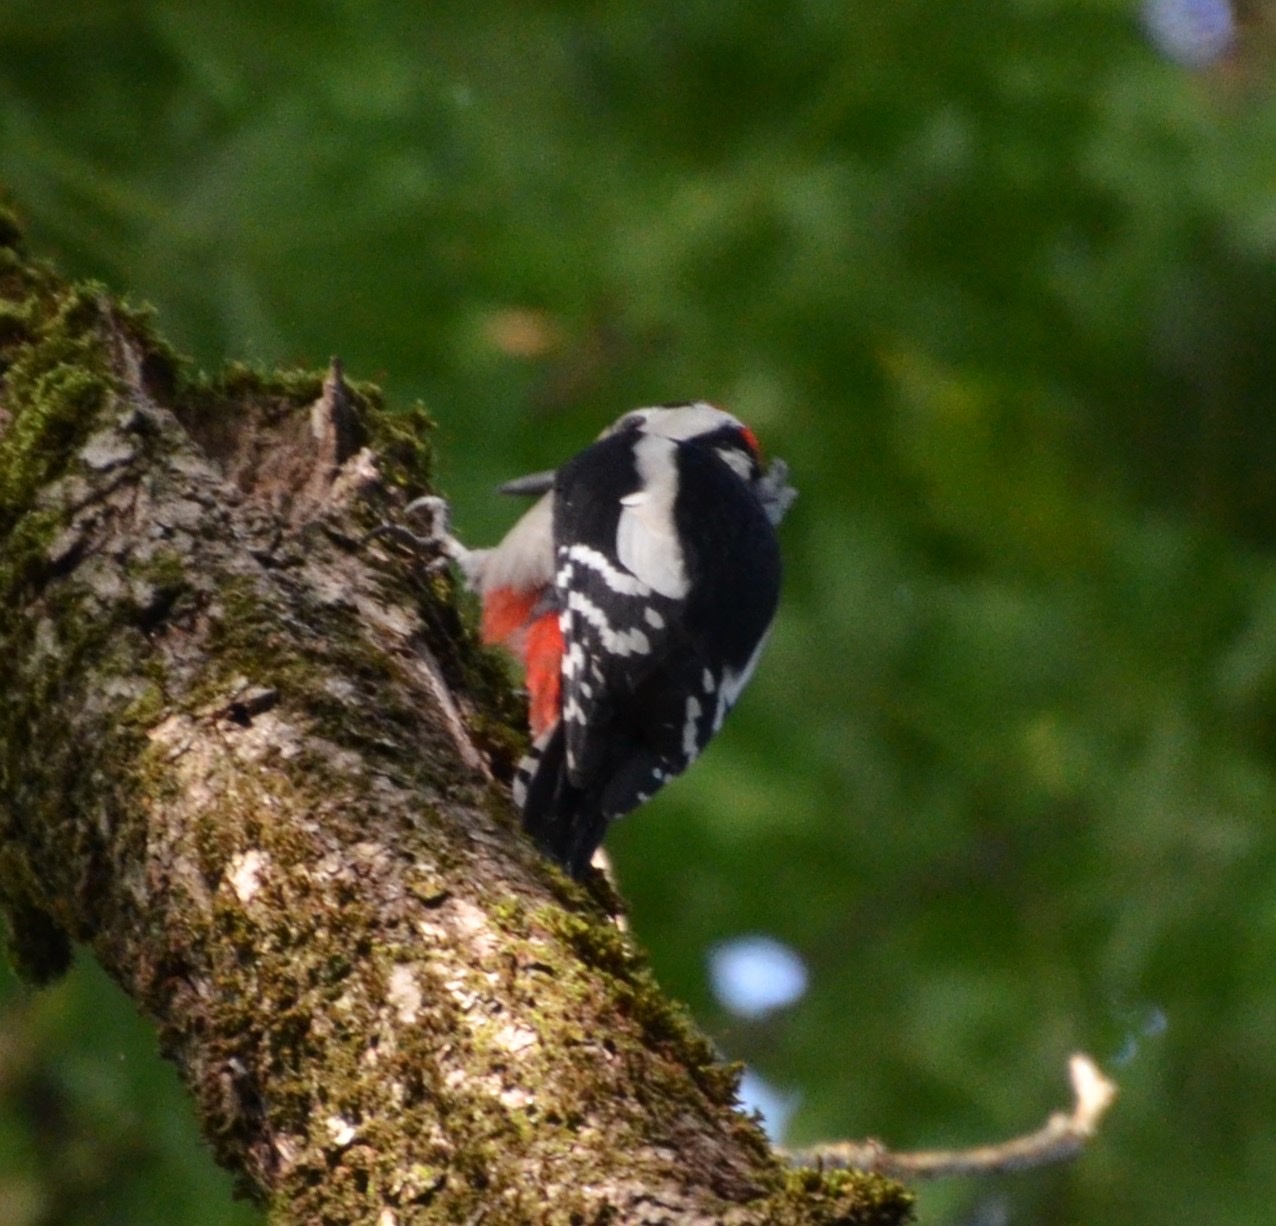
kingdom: Animalia
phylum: Chordata
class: Aves
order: Piciformes
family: Picidae
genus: Dendrocopos
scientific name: Dendrocopos major
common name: Great spotted woodpecker
